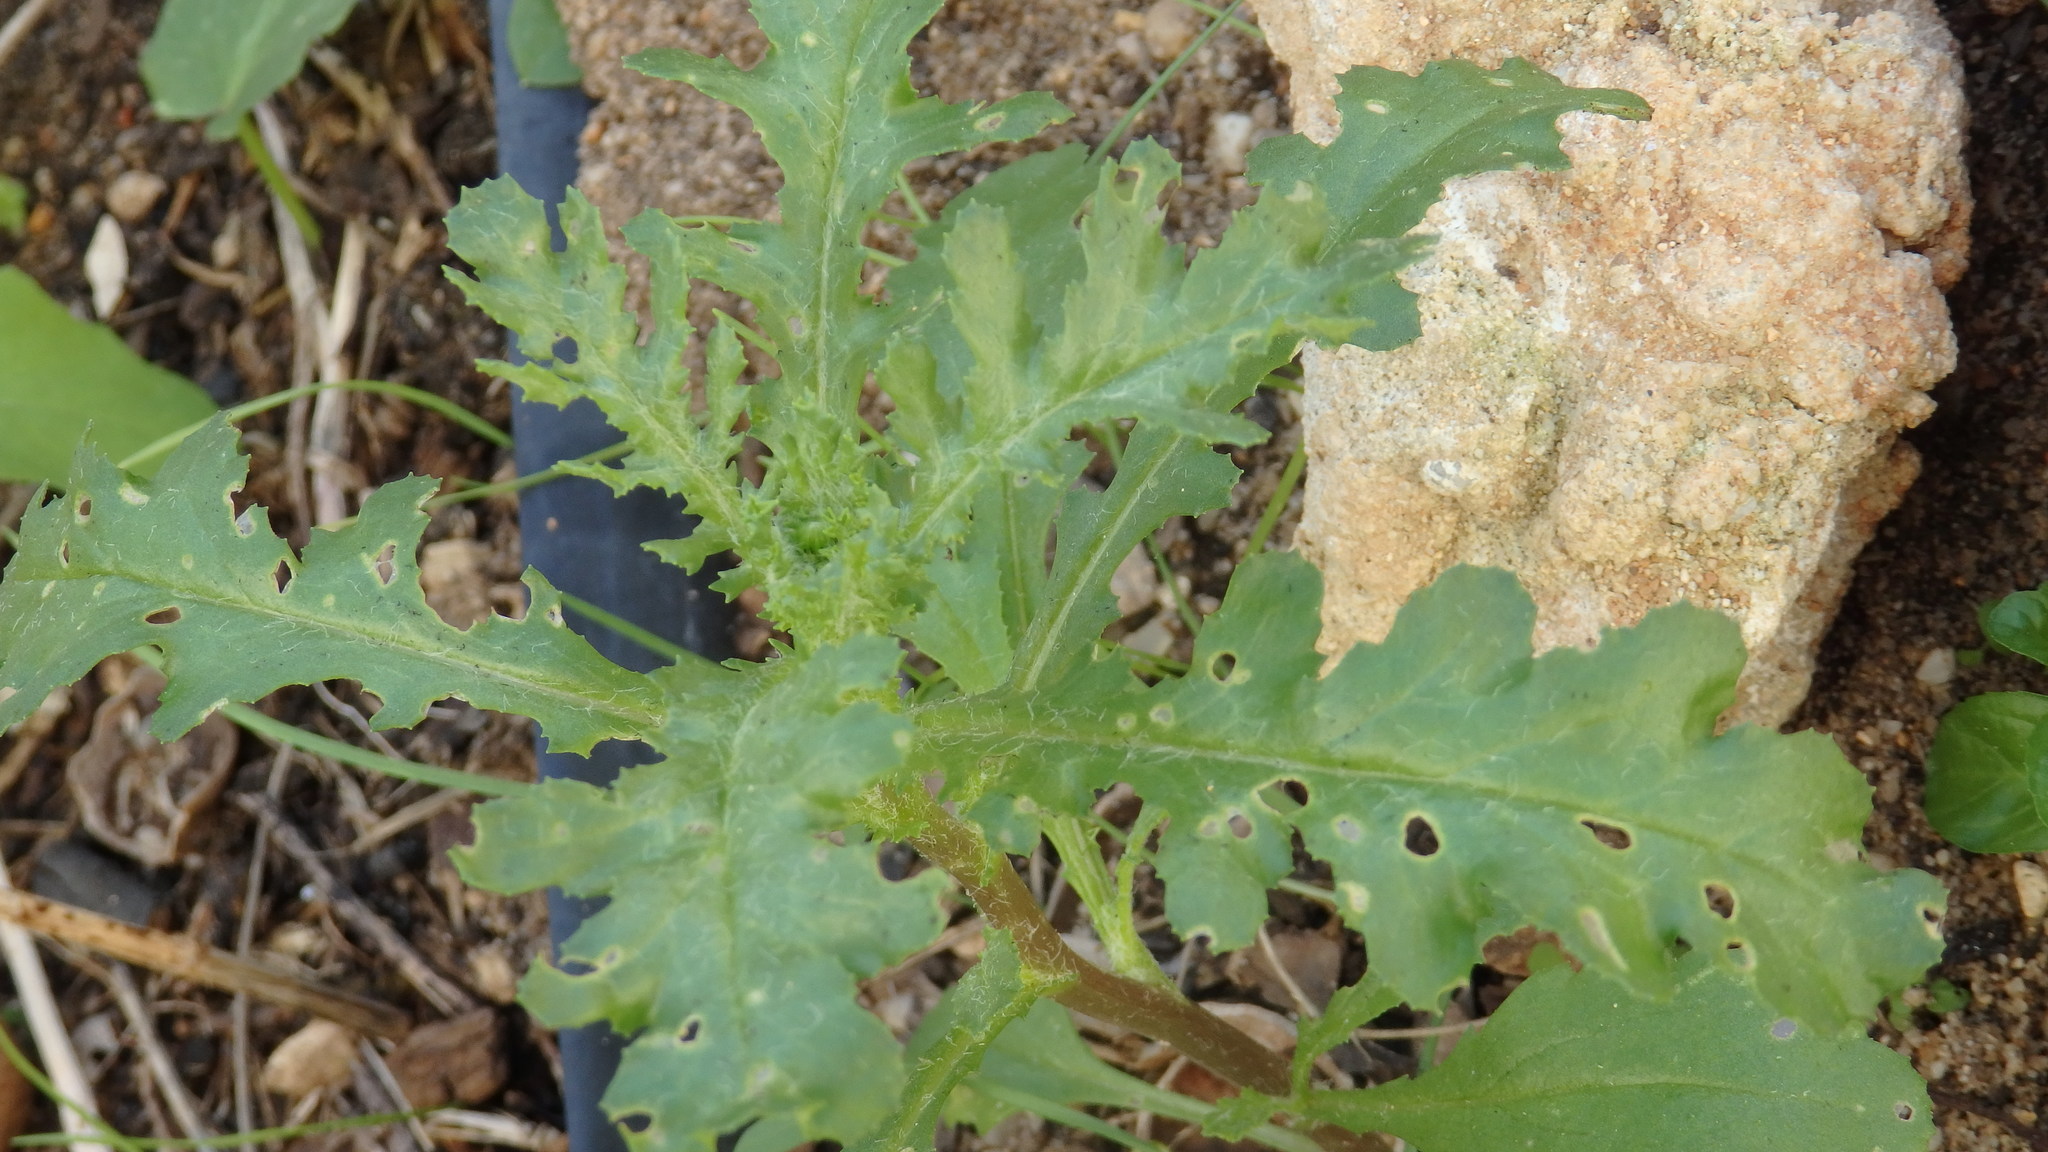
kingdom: Plantae
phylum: Tracheophyta
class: Magnoliopsida
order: Asterales
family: Asteraceae
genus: Senecio
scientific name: Senecio vulgaris
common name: Old-man-in-the-spring
